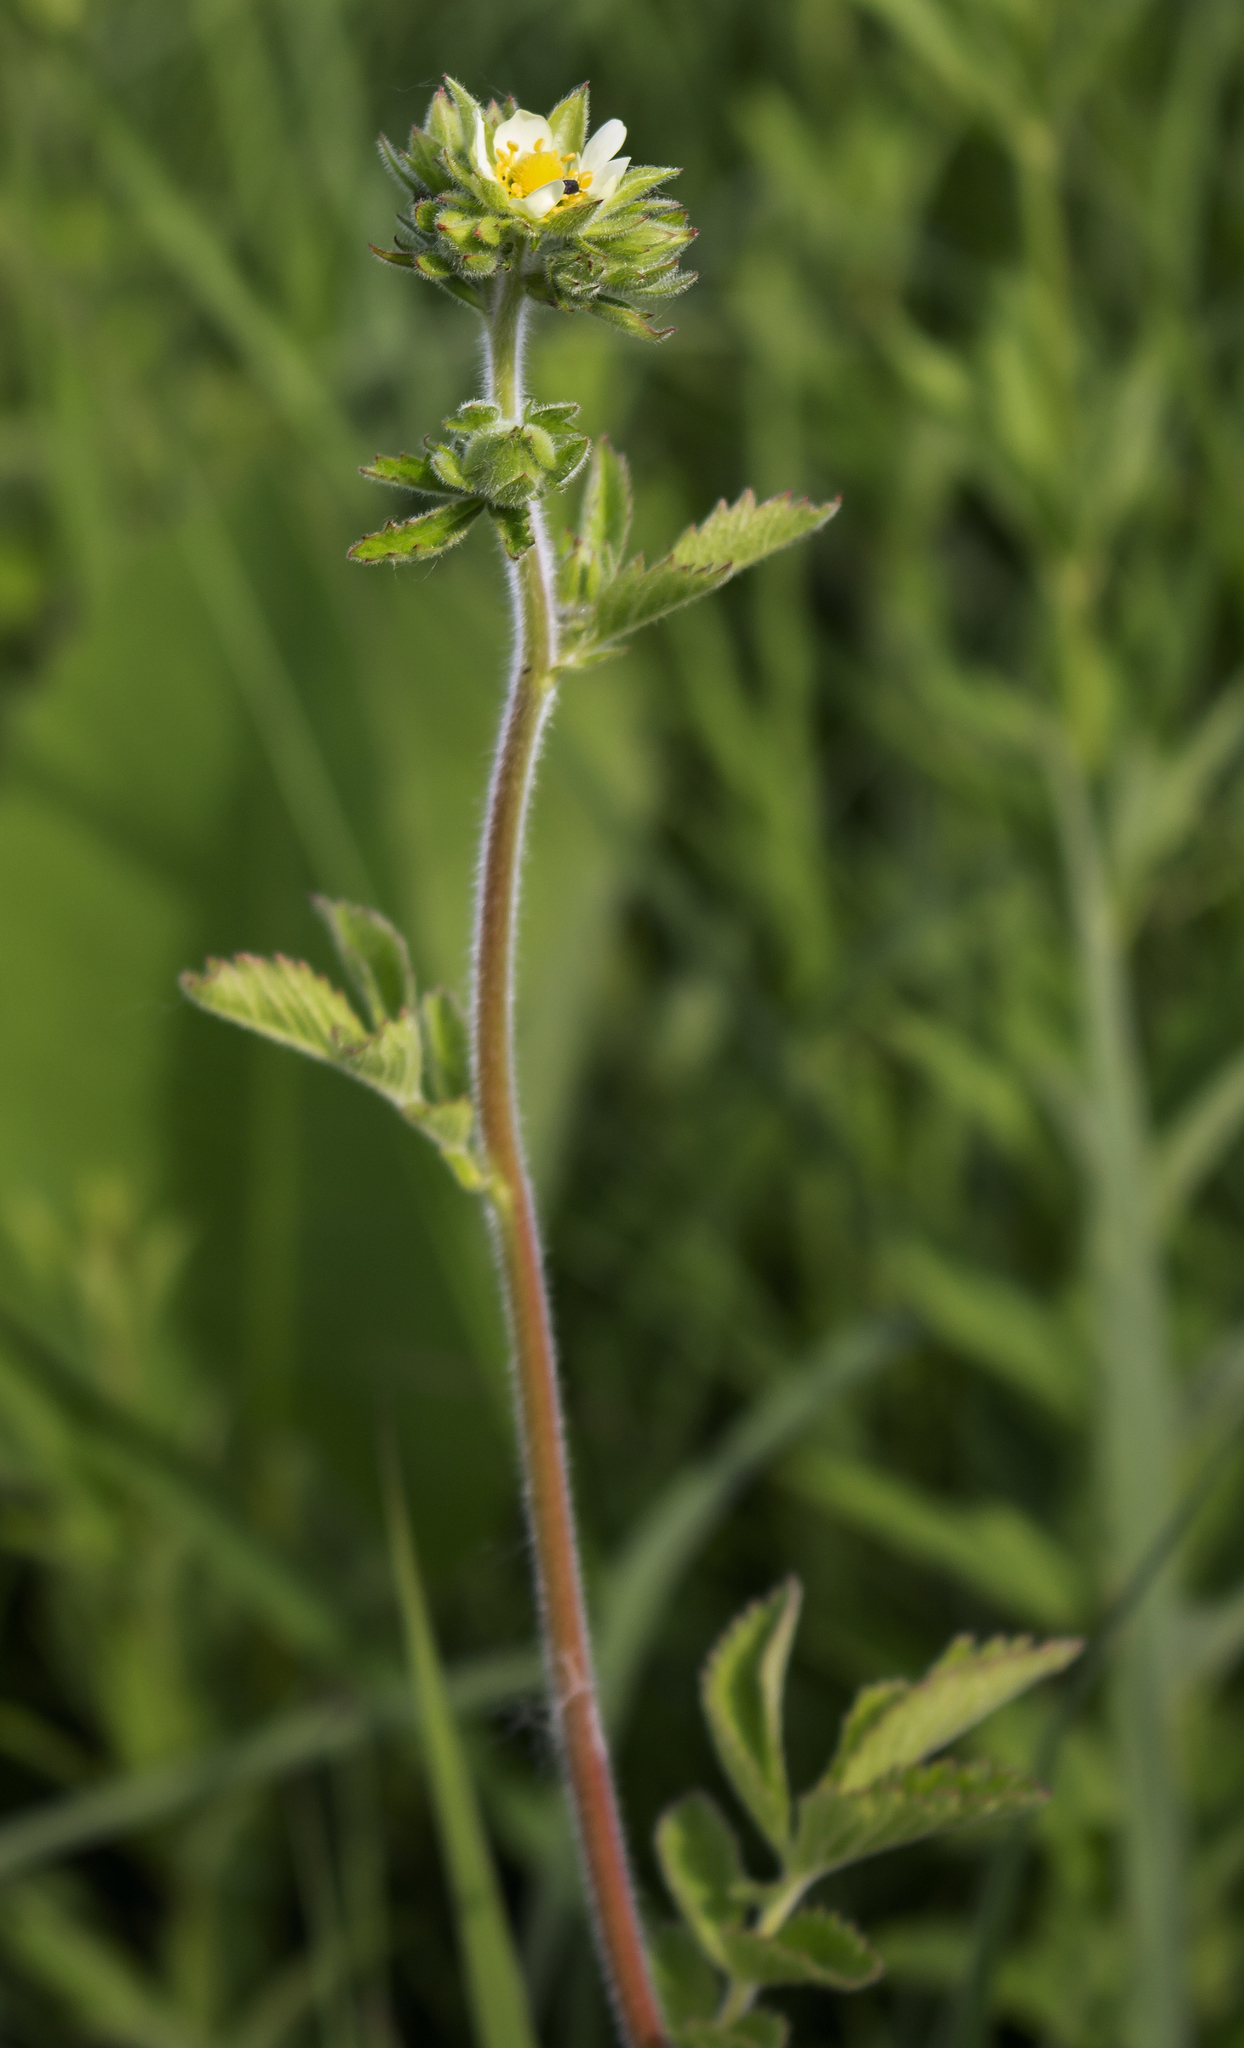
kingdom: Plantae
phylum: Tracheophyta
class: Magnoliopsida
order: Rosales
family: Rosaceae
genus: Drymocallis
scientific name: Drymocallis arguta
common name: Tall cinquefoil
